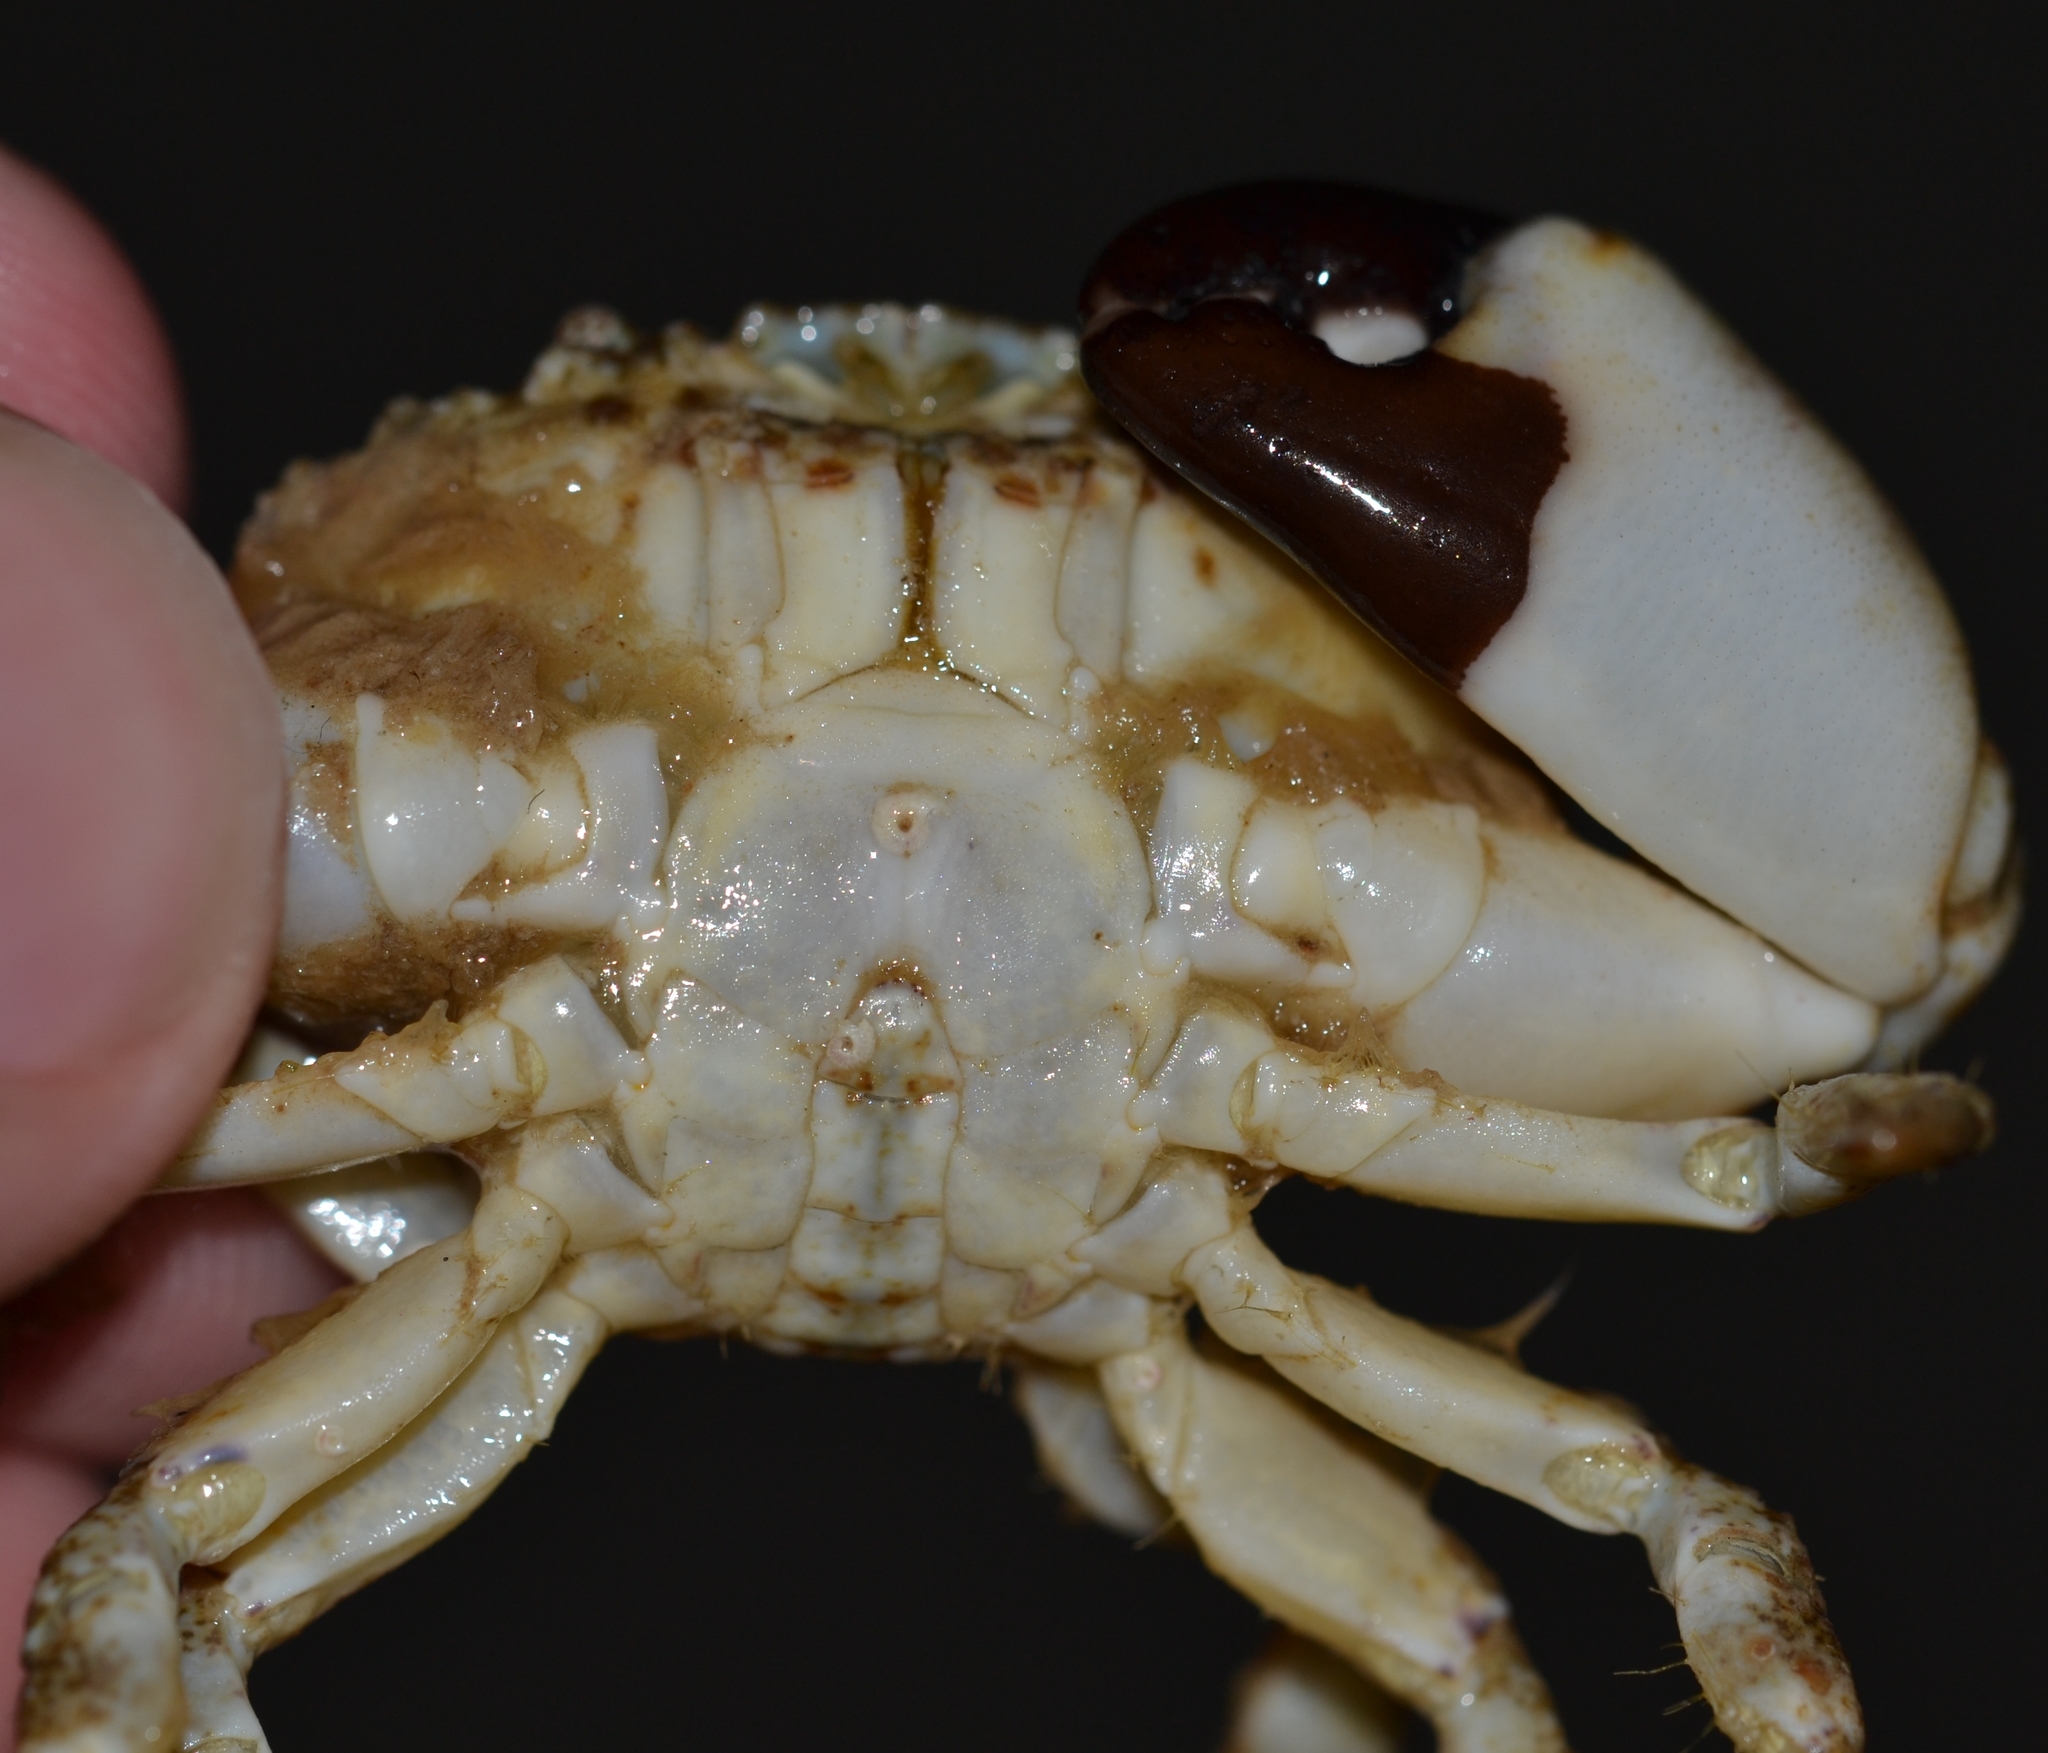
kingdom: Animalia
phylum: Arthropoda
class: Malacostraca
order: Decapoda
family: Xanthidae
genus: Leptodius
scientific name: Leptodius sanguineus
